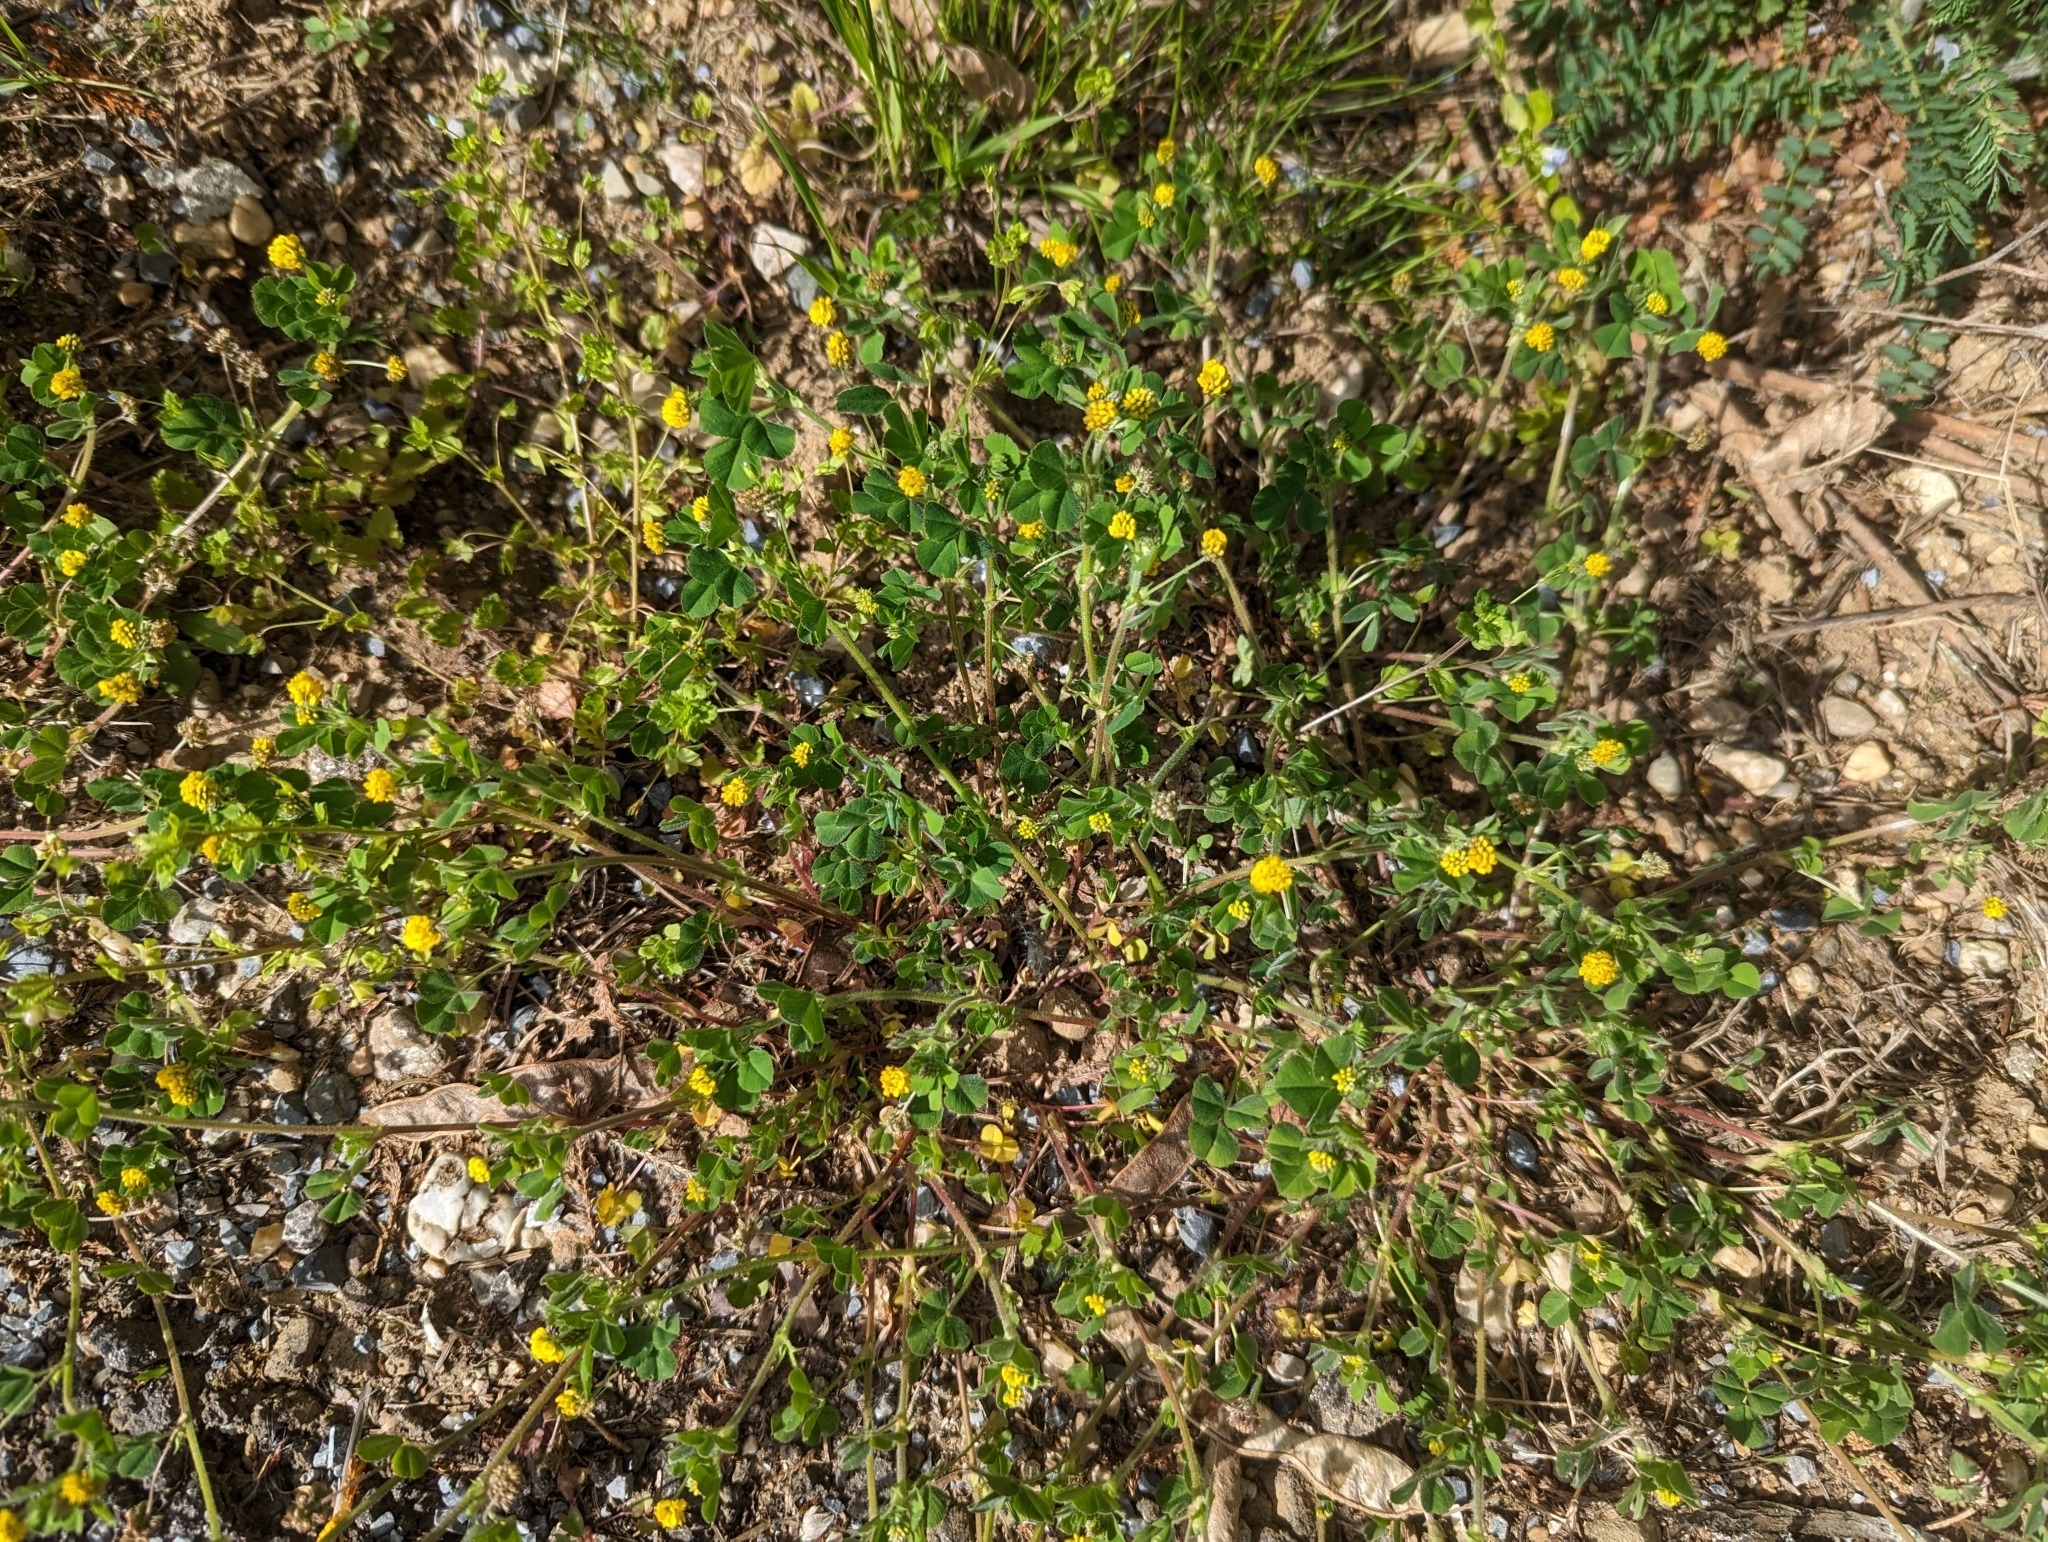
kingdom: Plantae
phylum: Tracheophyta
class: Magnoliopsida
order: Fabales
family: Fabaceae
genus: Medicago
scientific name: Medicago lupulina
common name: Black medick
